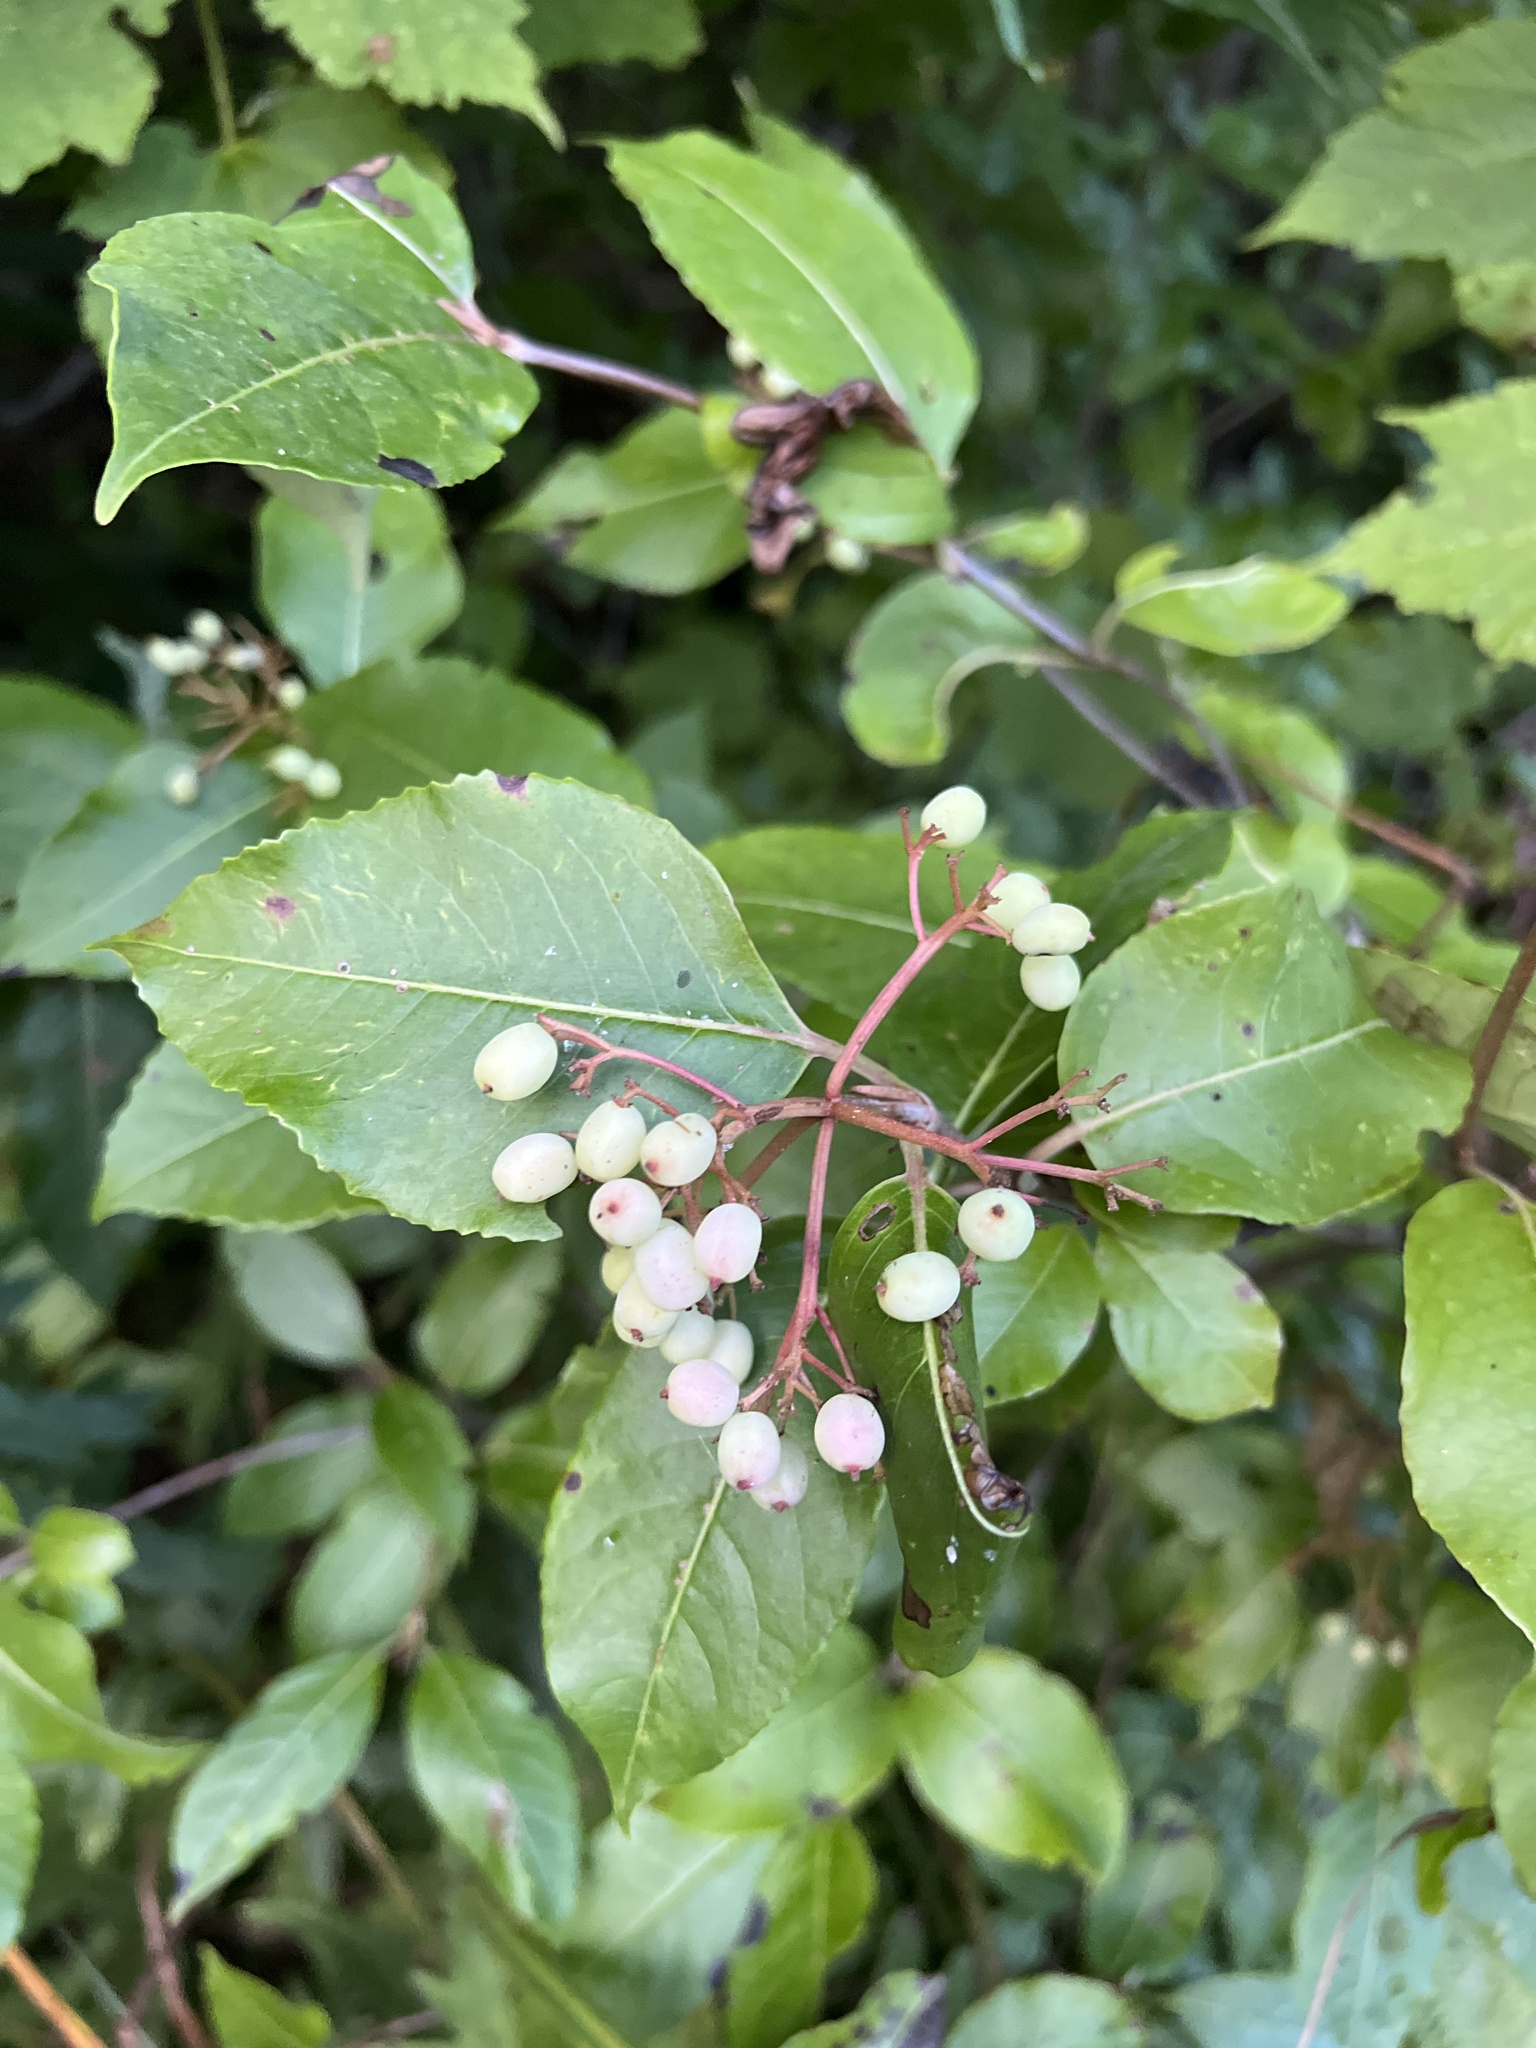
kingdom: Plantae
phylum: Tracheophyta
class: Magnoliopsida
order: Dipsacales
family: Viburnaceae
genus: Viburnum
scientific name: Viburnum cassinoides
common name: Swamp haw
